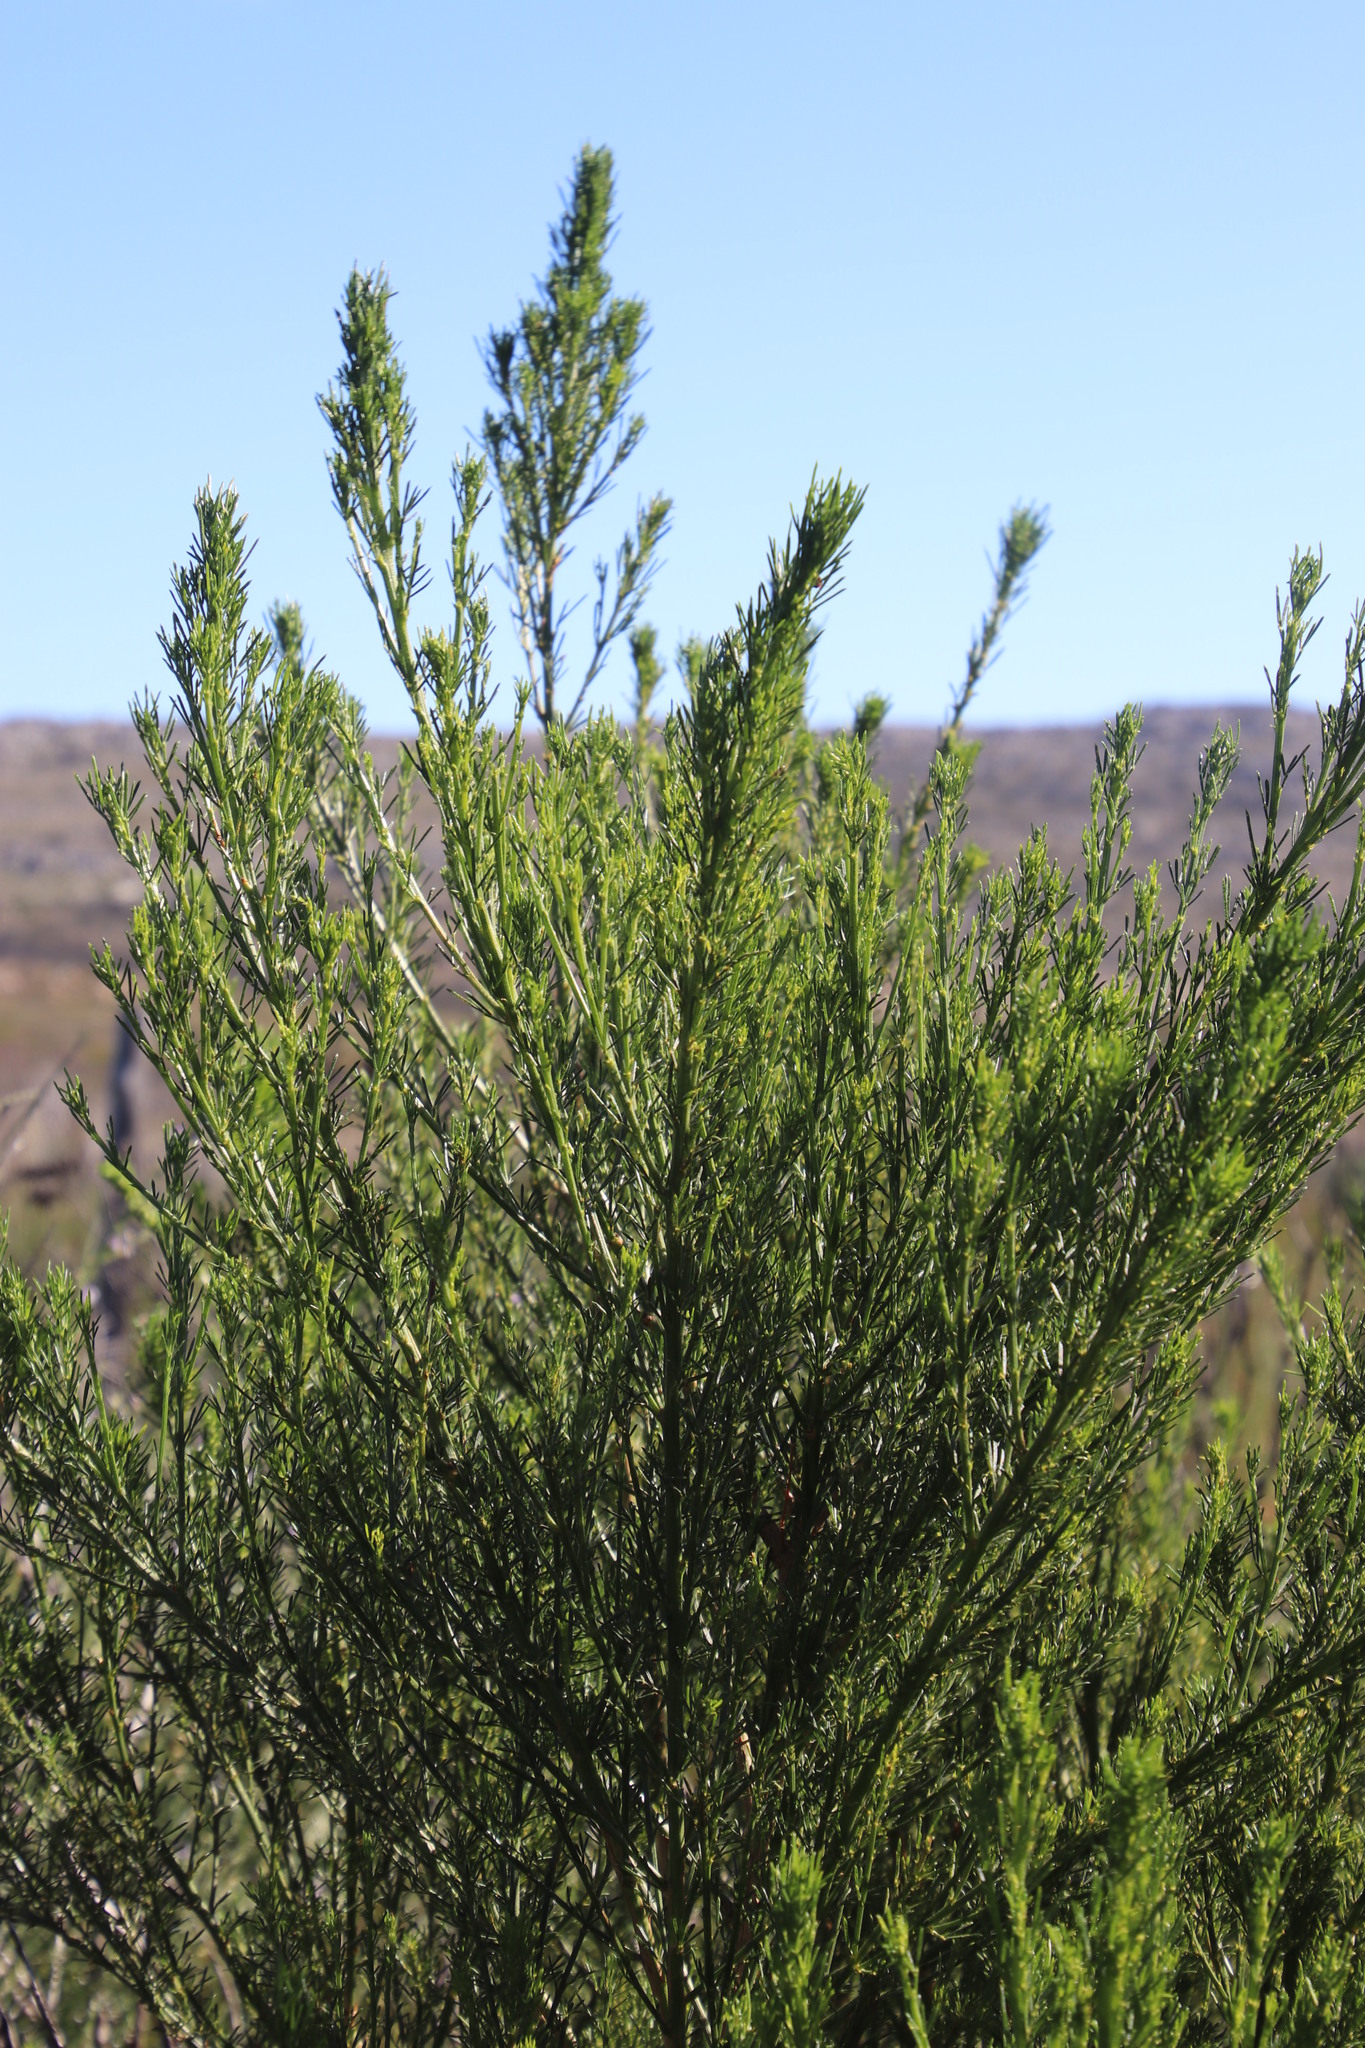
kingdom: Plantae
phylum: Tracheophyta
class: Magnoliopsida
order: Fabales
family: Fabaceae
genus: Psoralea
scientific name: Psoralea pinnata
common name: African scurfpea
